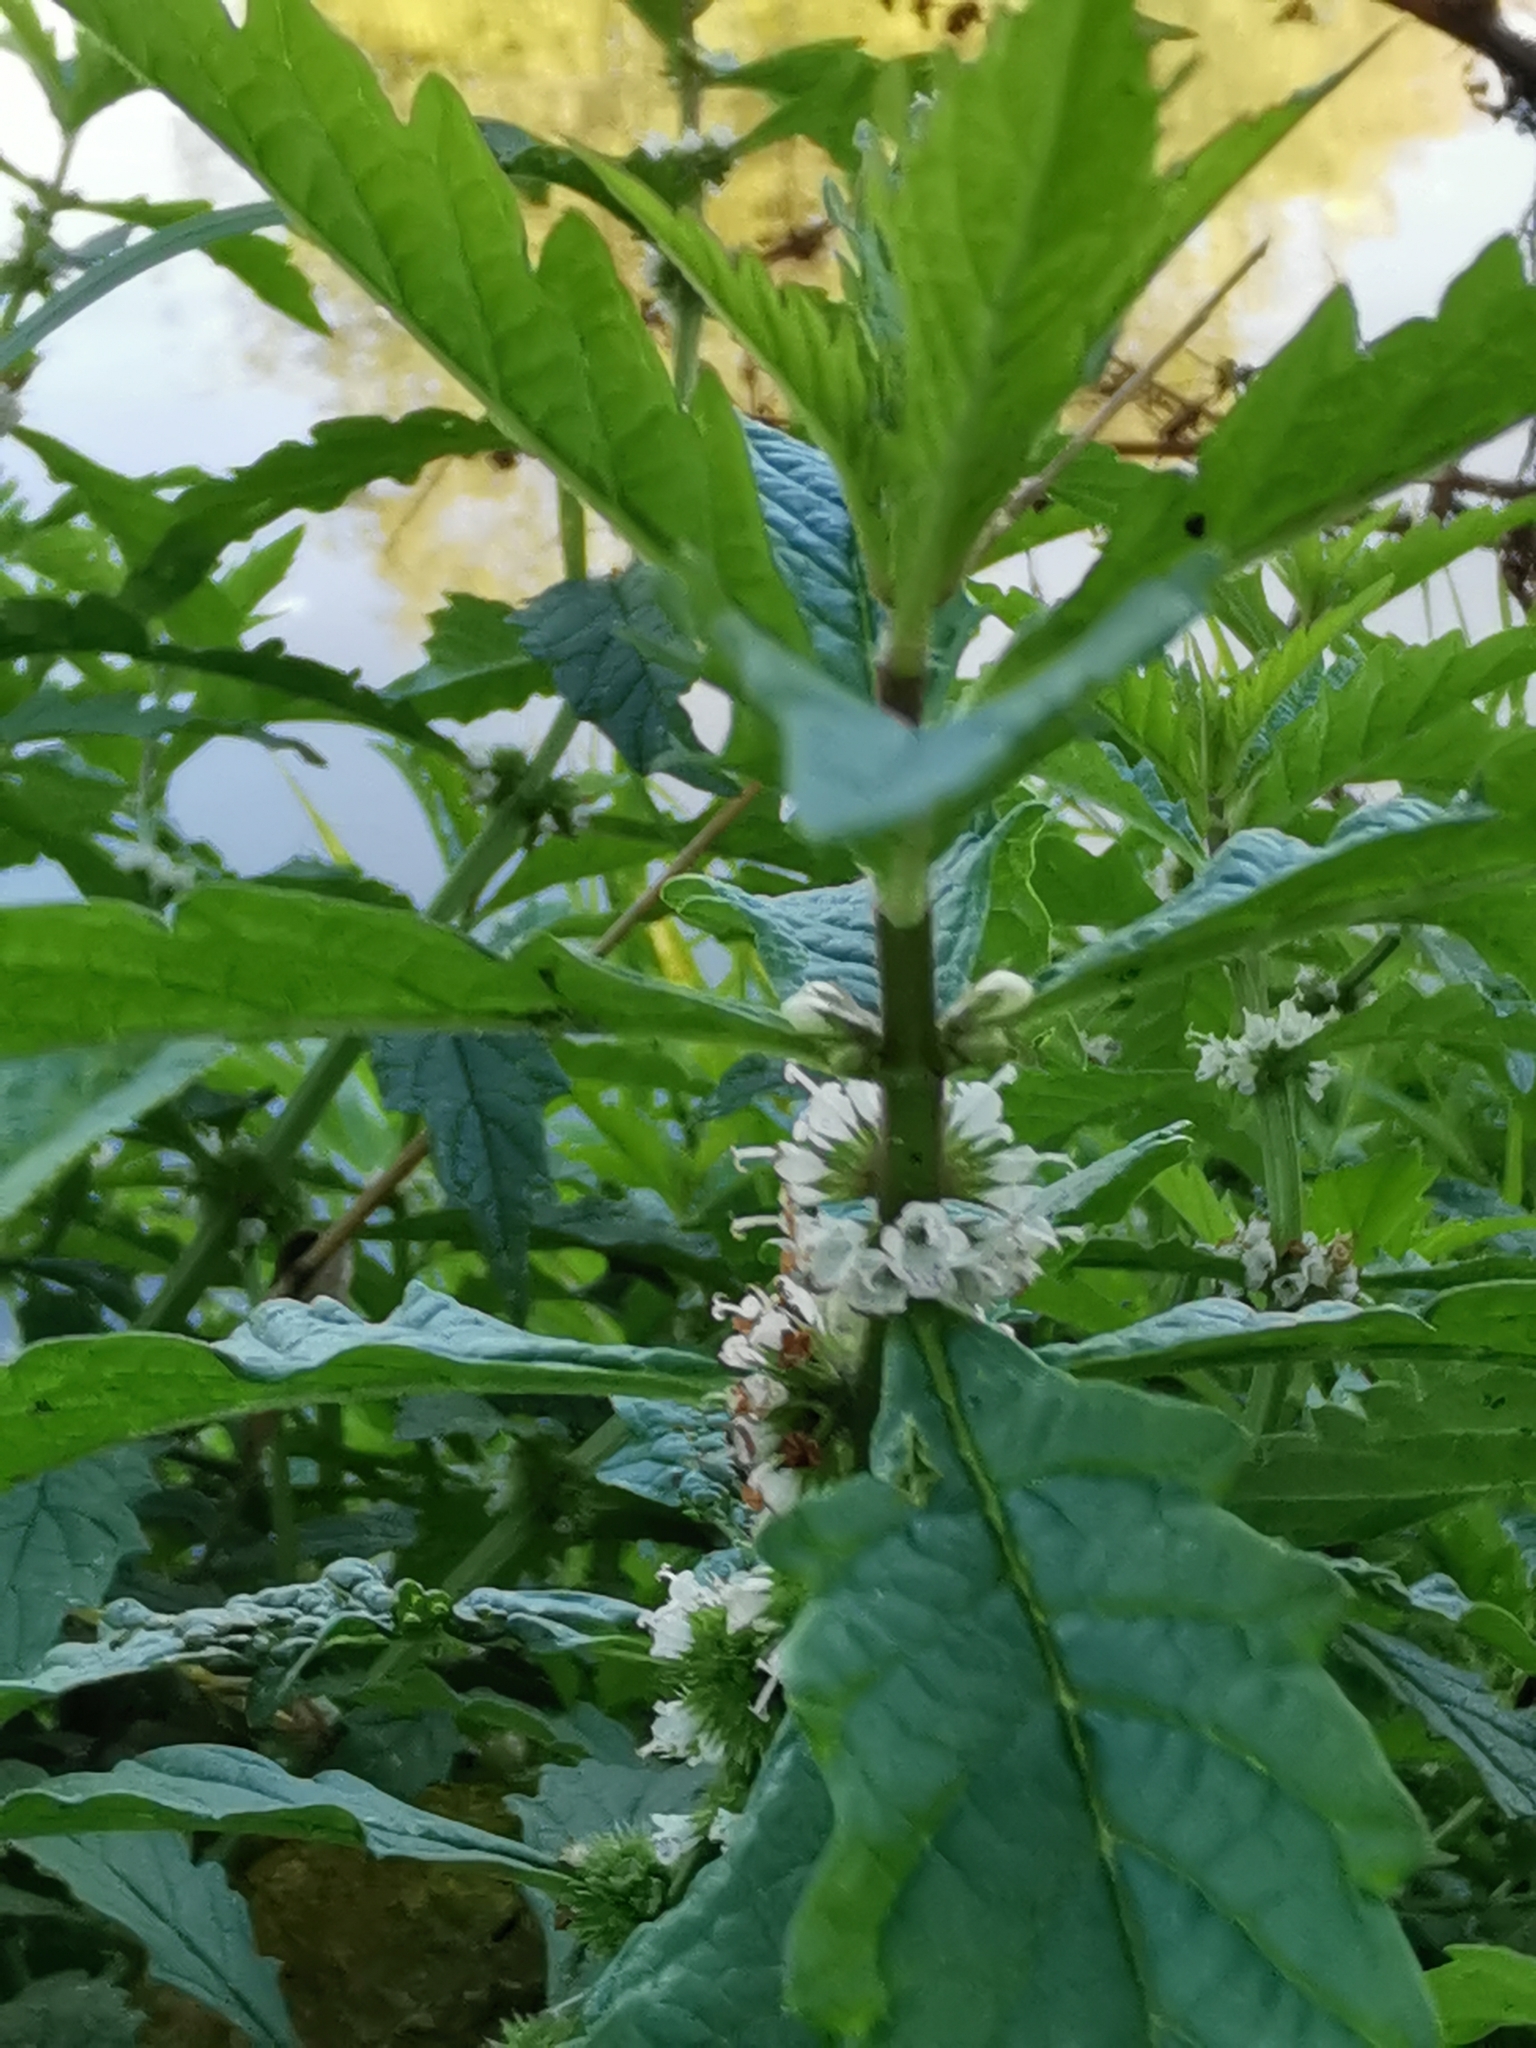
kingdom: Plantae
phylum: Tracheophyta
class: Magnoliopsida
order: Lamiales
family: Lamiaceae
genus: Lycopus
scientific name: Lycopus europaeus
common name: European bugleweed
